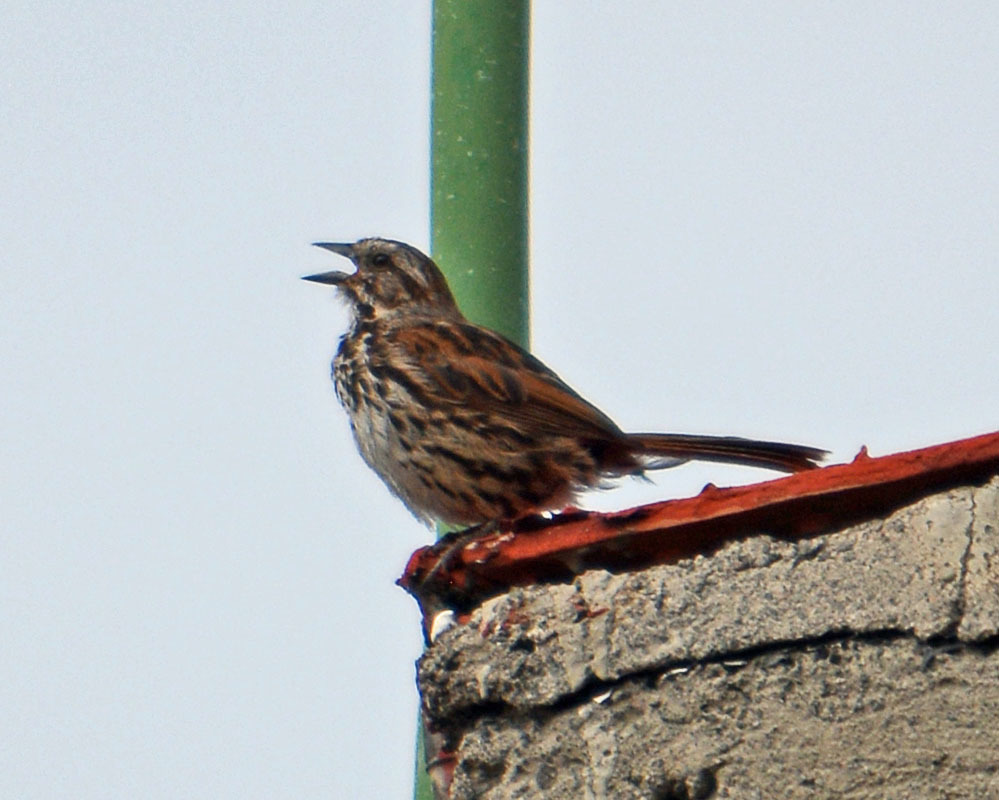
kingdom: Animalia
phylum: Chordata
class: Aves
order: Passeriformes
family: Passerellidae
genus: Melospiza
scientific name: Melospiza melodia
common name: Song sparrow
